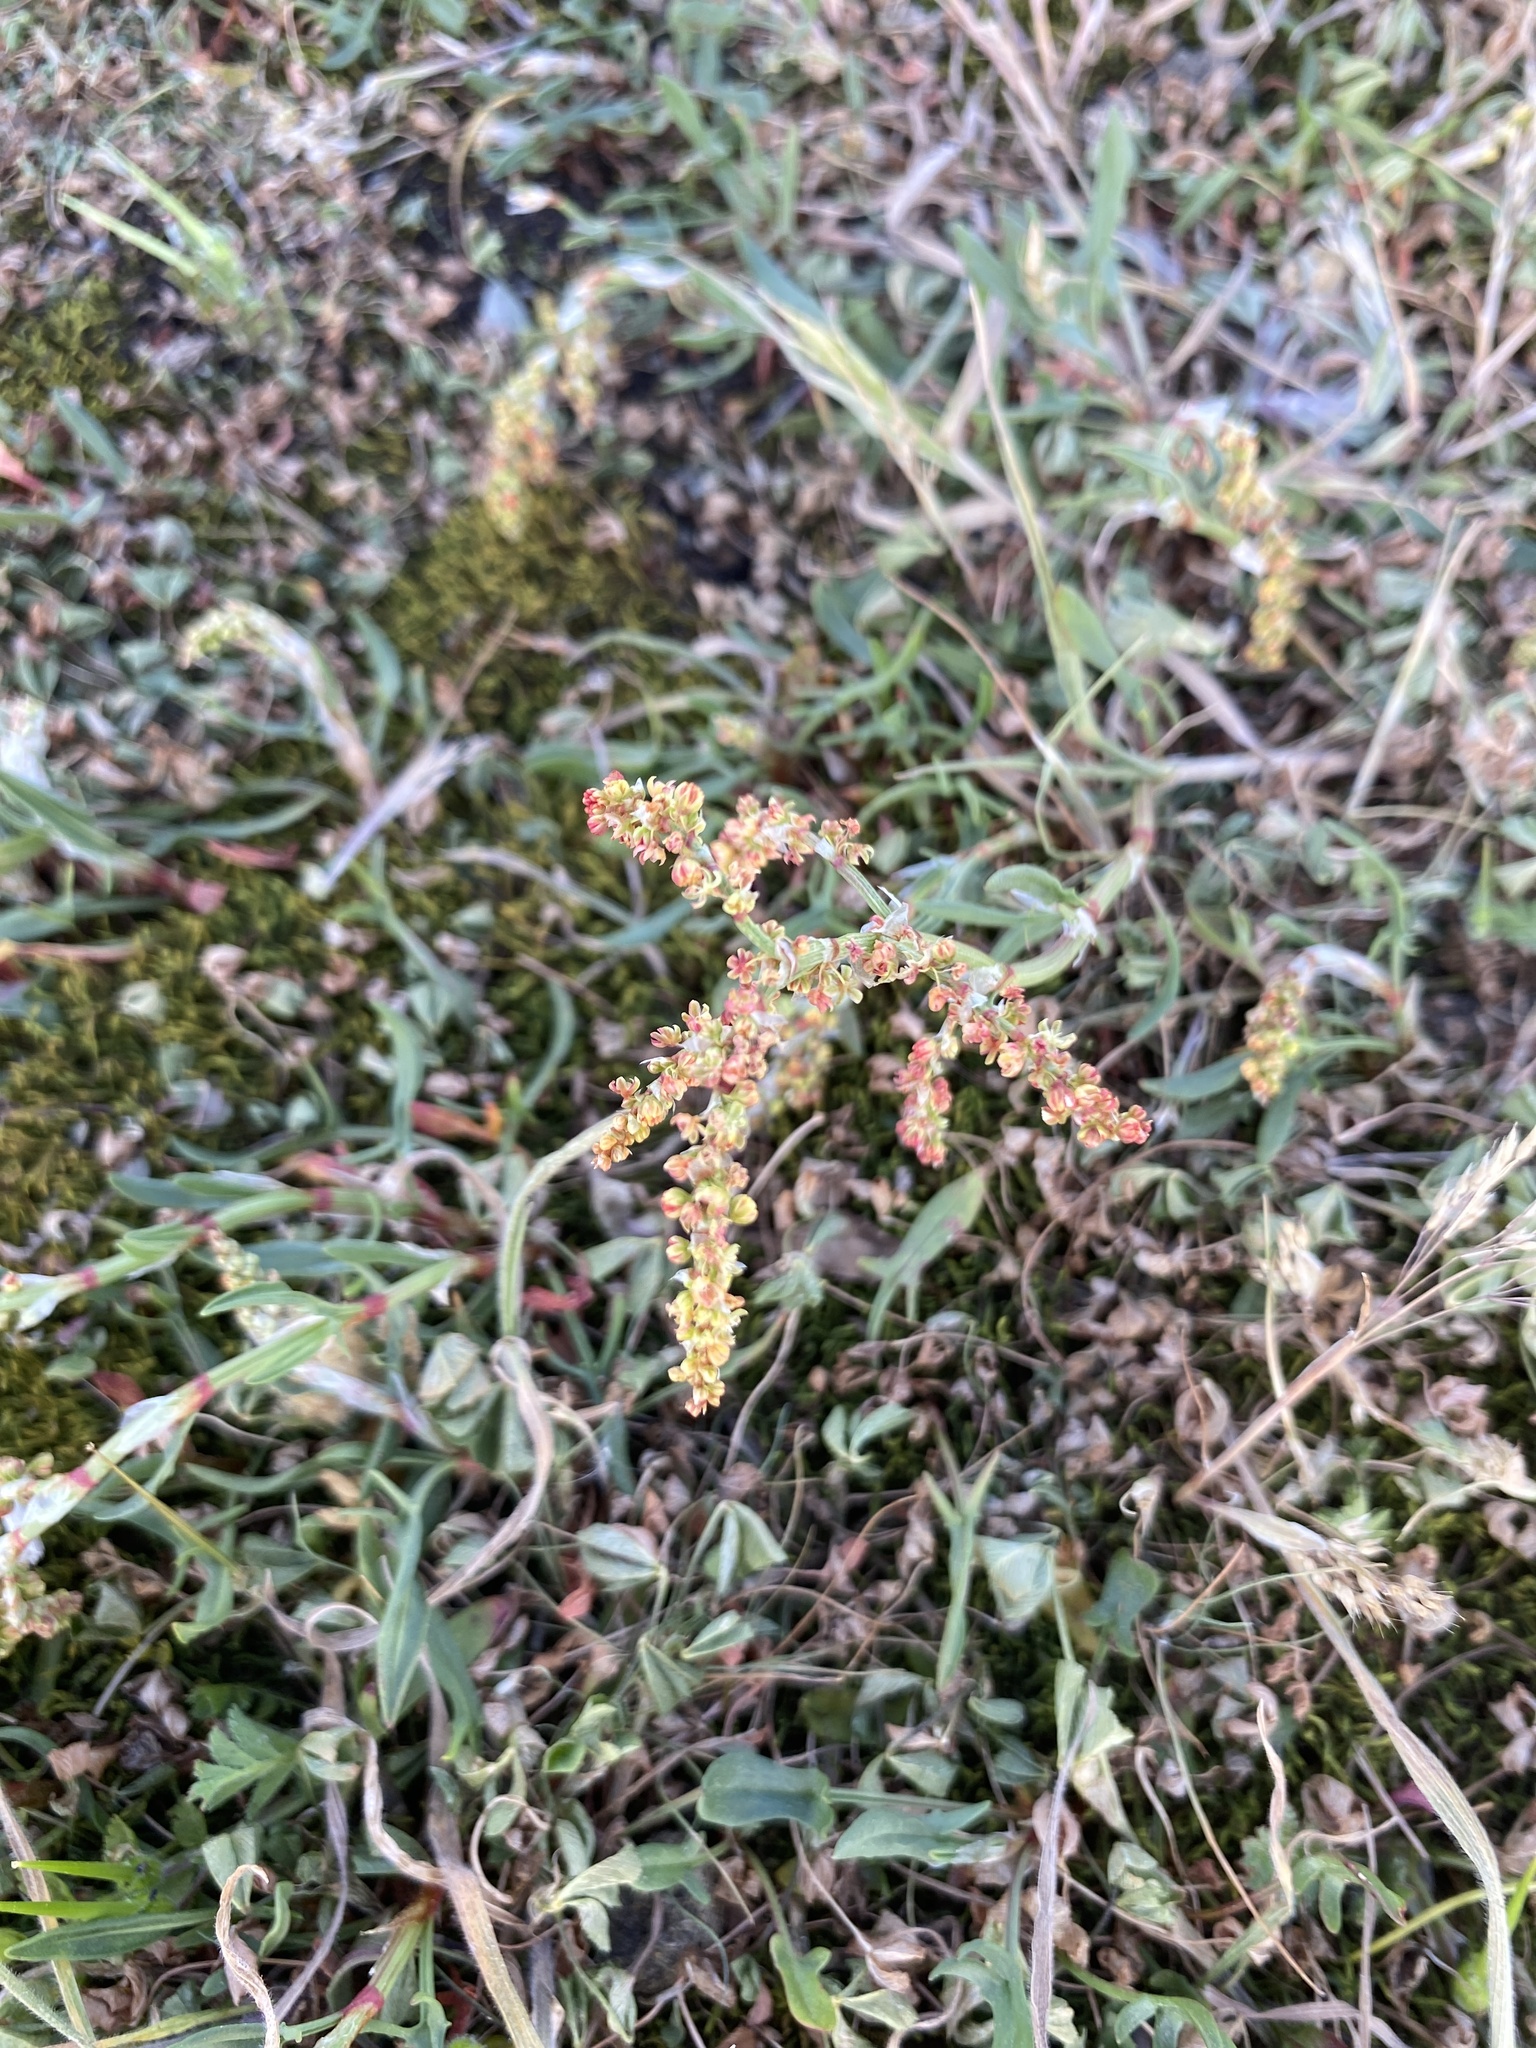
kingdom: Plantae
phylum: Tracheophyta
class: Magnoliopsida
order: Caryophyllales
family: Polygonaceae
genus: Rumex
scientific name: Rumex acetosella
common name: Common sheep sorrel
